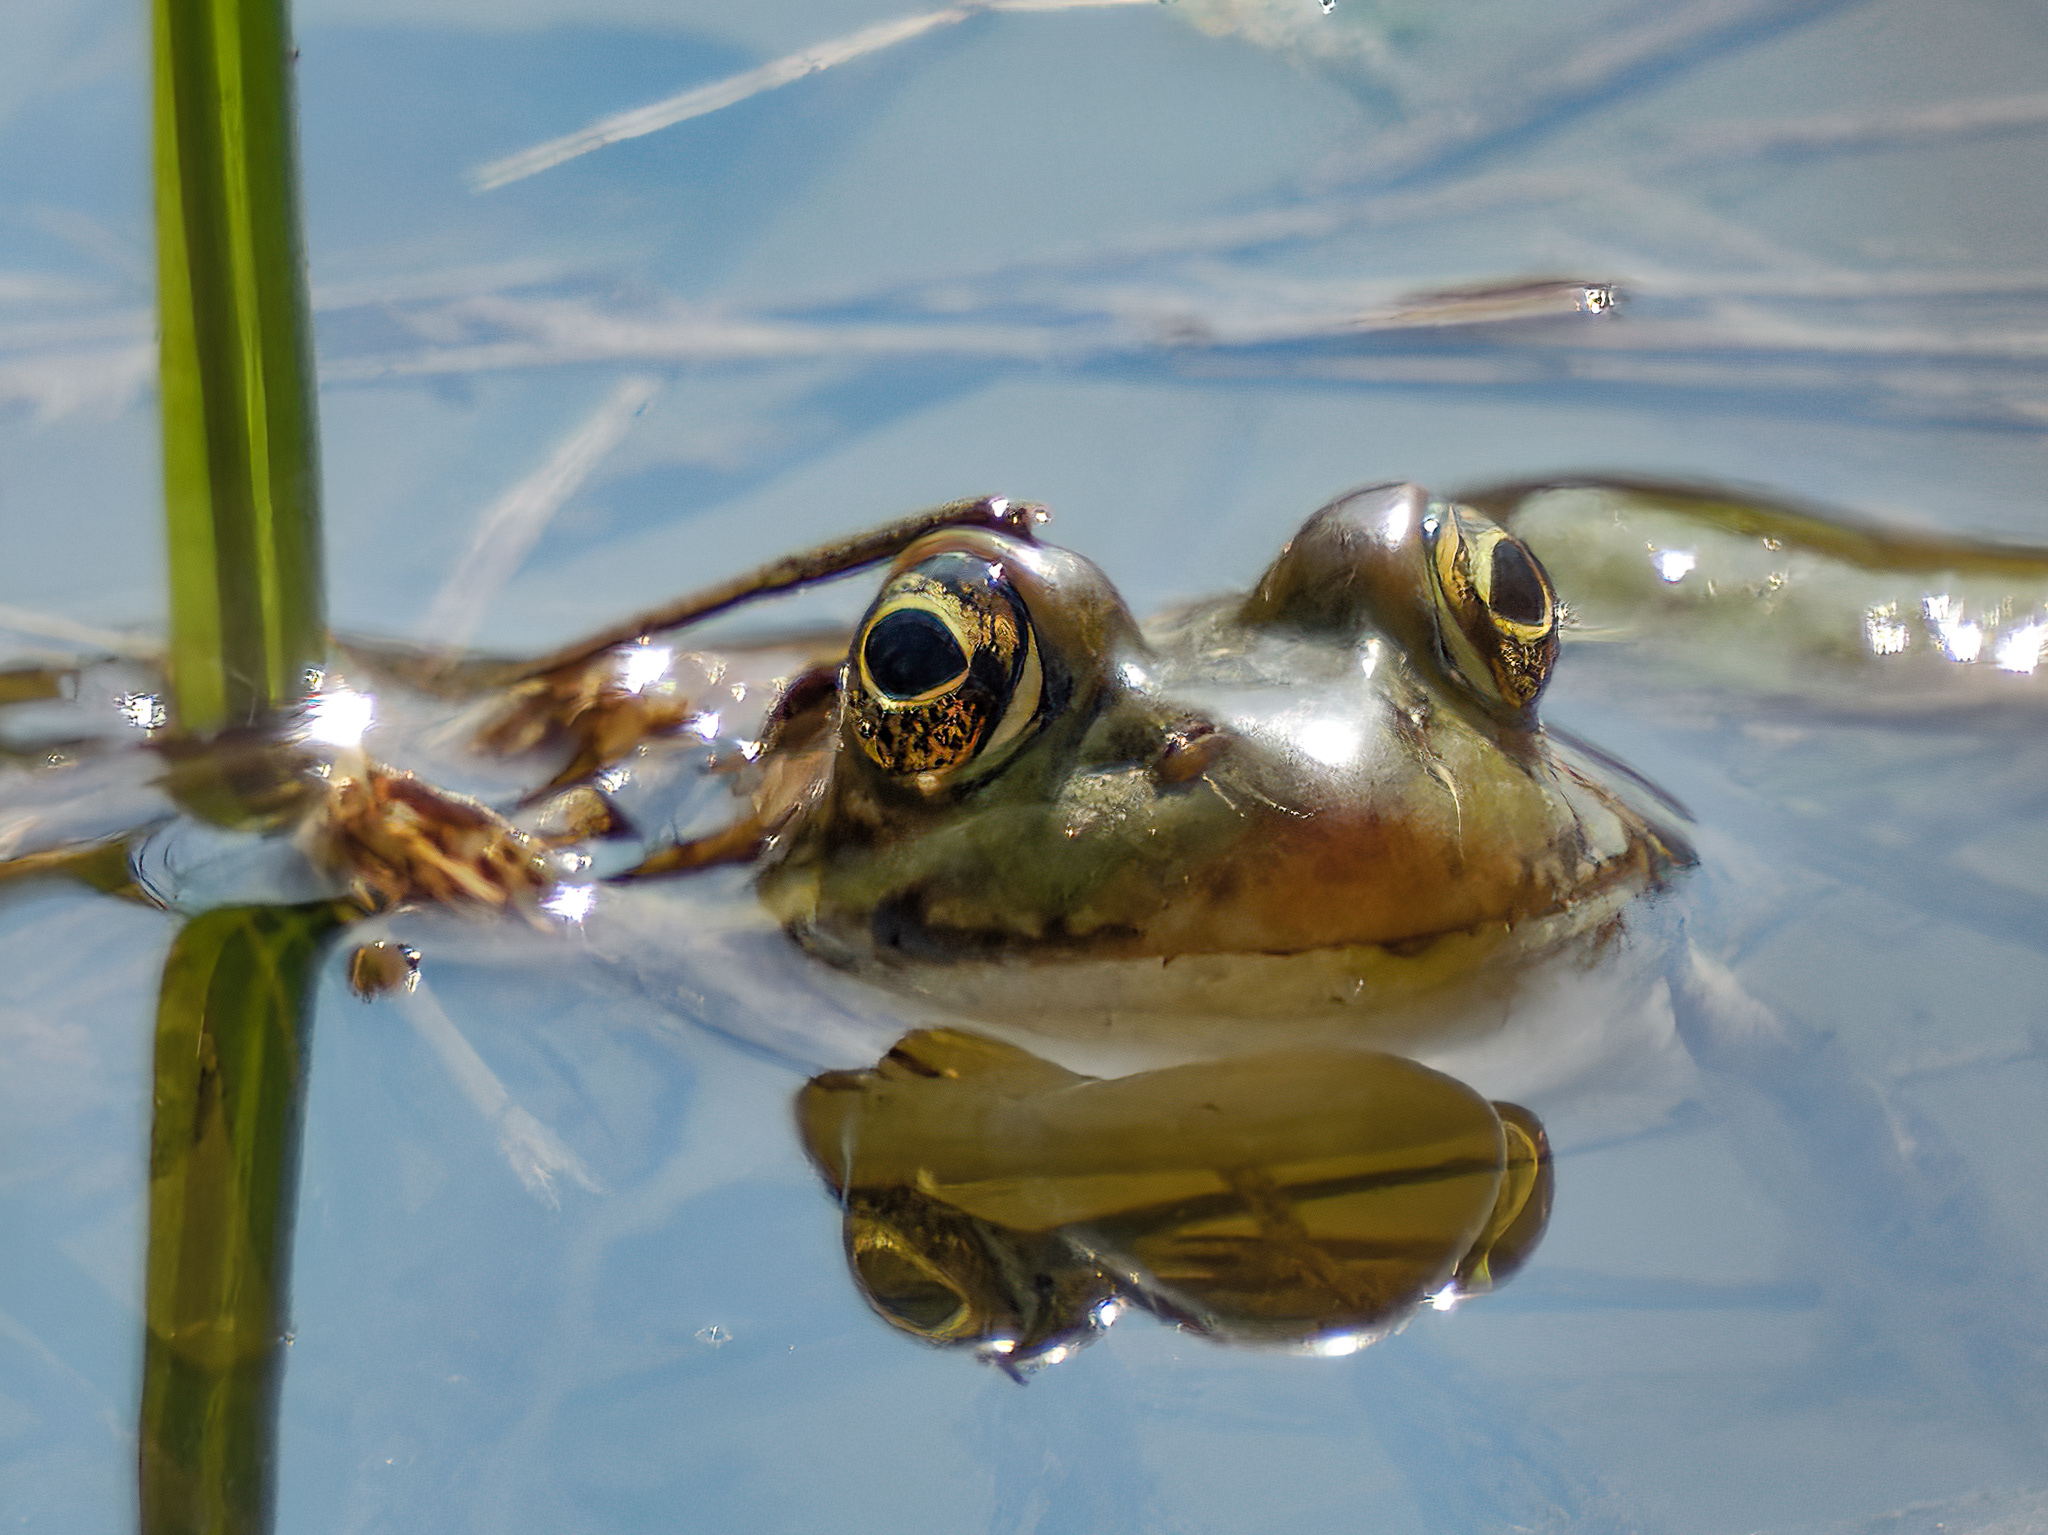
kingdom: Animalia
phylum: Chordata
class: Amphibia
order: Anura
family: Ranidae
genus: Lithobates
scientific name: Lithobates clamitans
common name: Green frog
